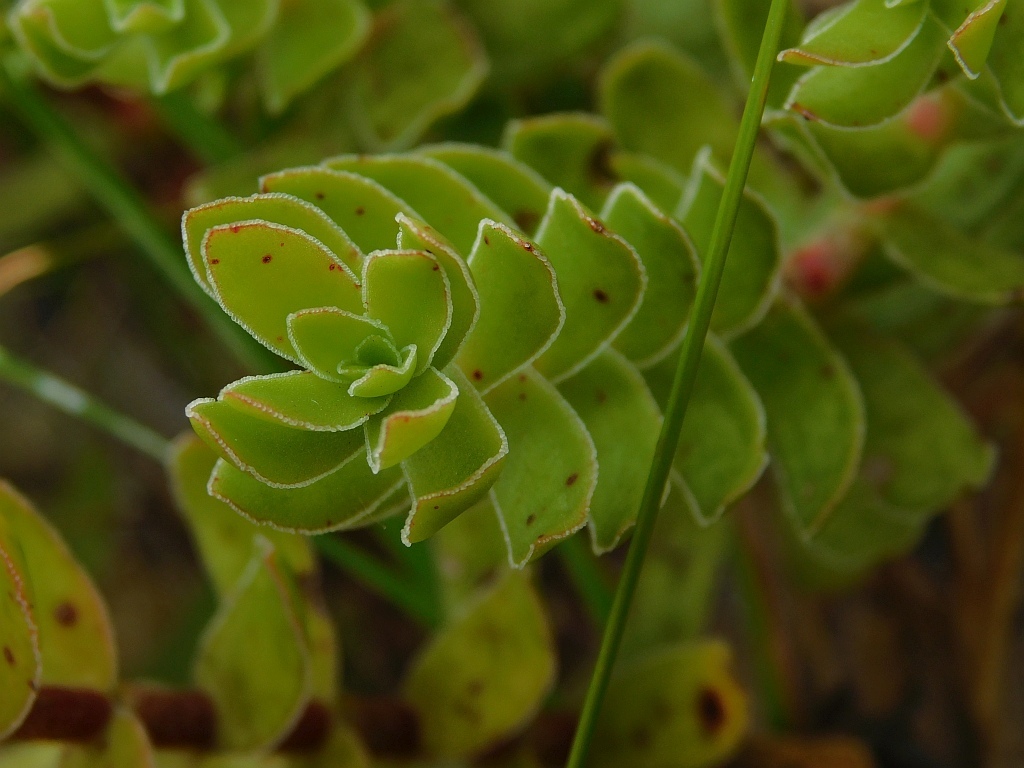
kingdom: Plantae
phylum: Tracheophyta
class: Magnoliopsida
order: Saxifragales
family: Crassulaceae
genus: Crassula
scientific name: Crassula undulata
